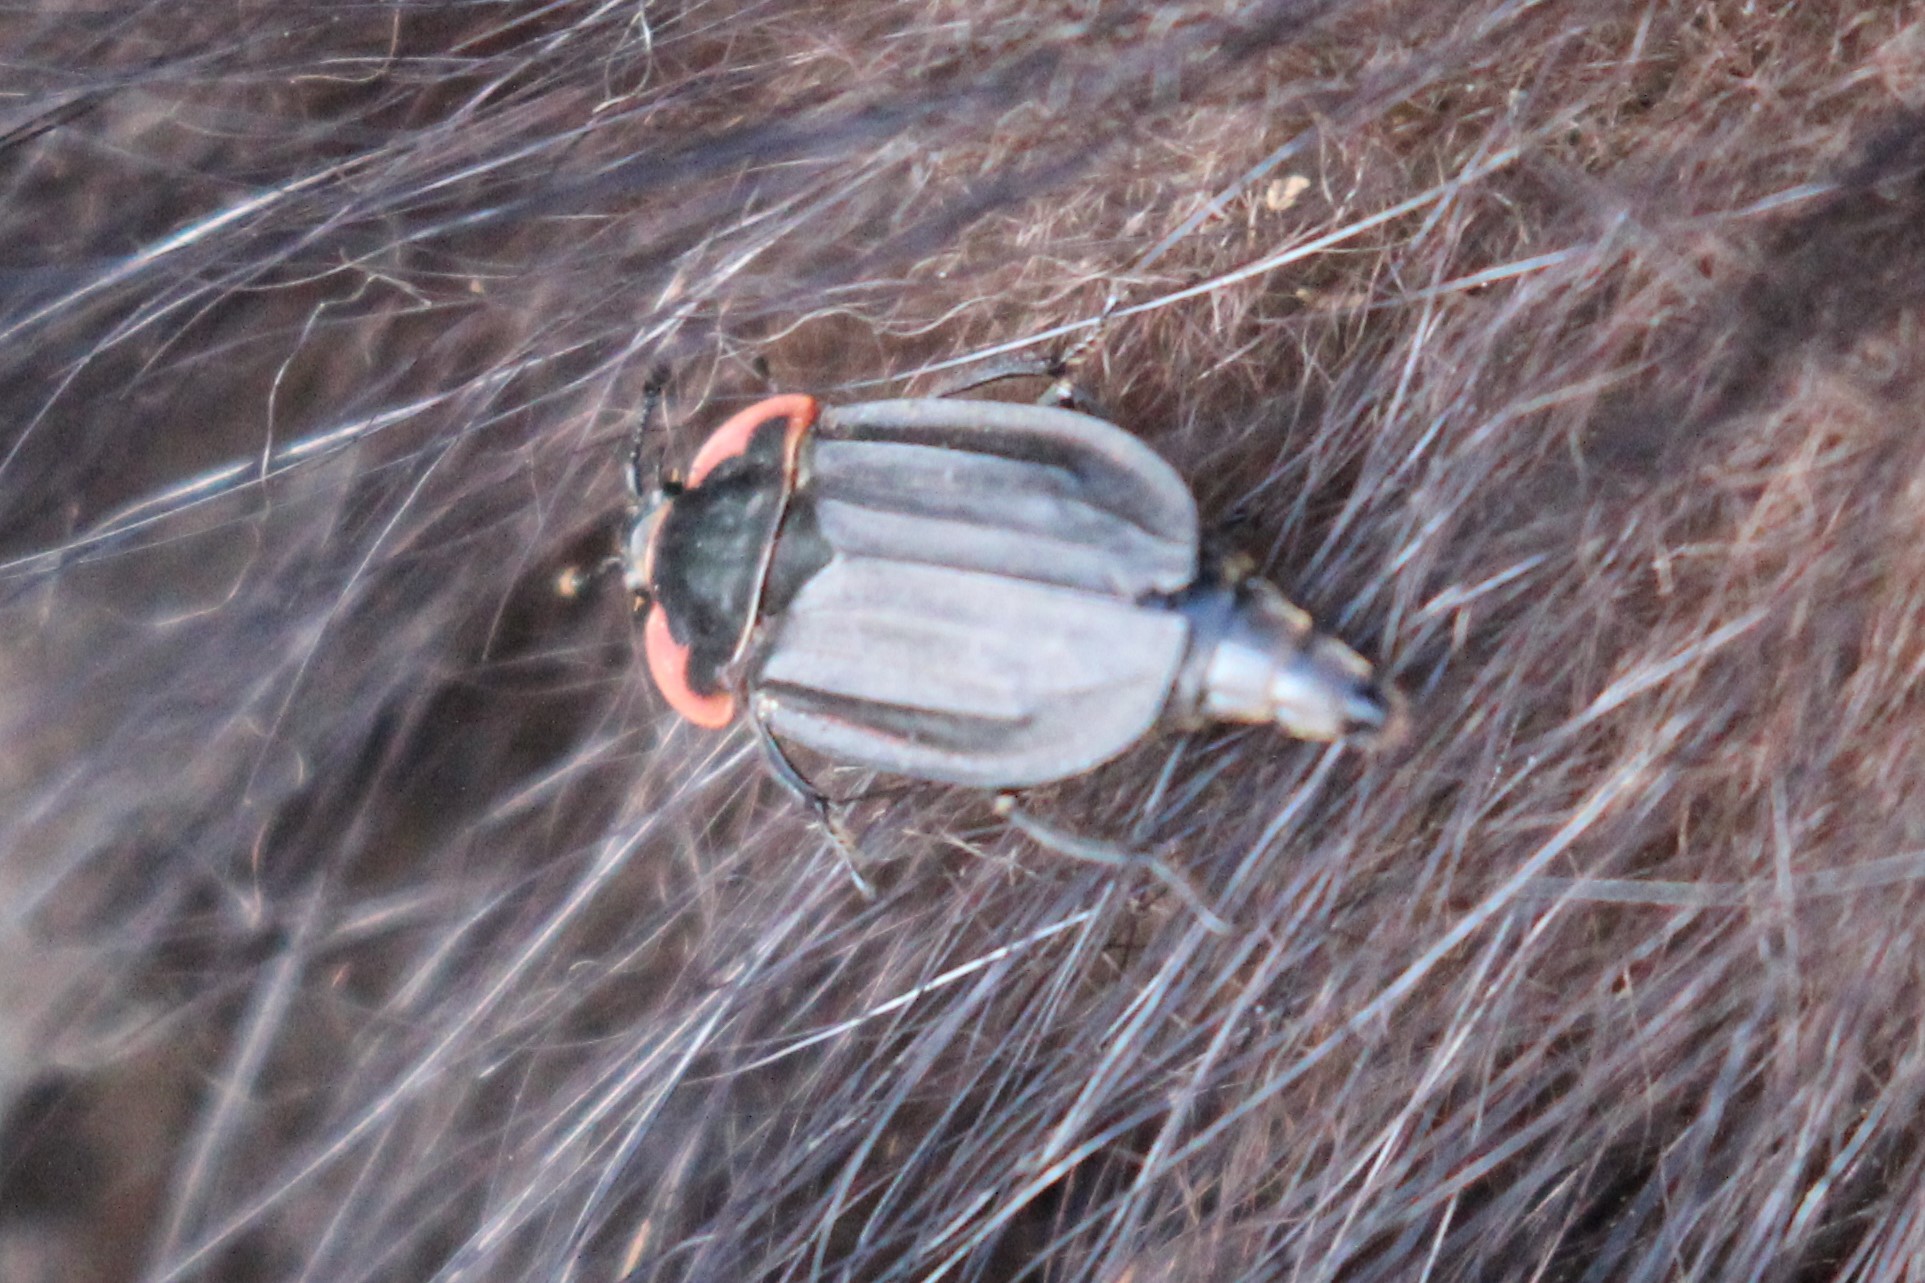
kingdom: Animalia
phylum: Arthropoda
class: Insecta
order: Coleoptera
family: Staphylinidae
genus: Oiceoptoma
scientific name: Oiceoptoma noveboracense
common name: Margined carrion beetle
